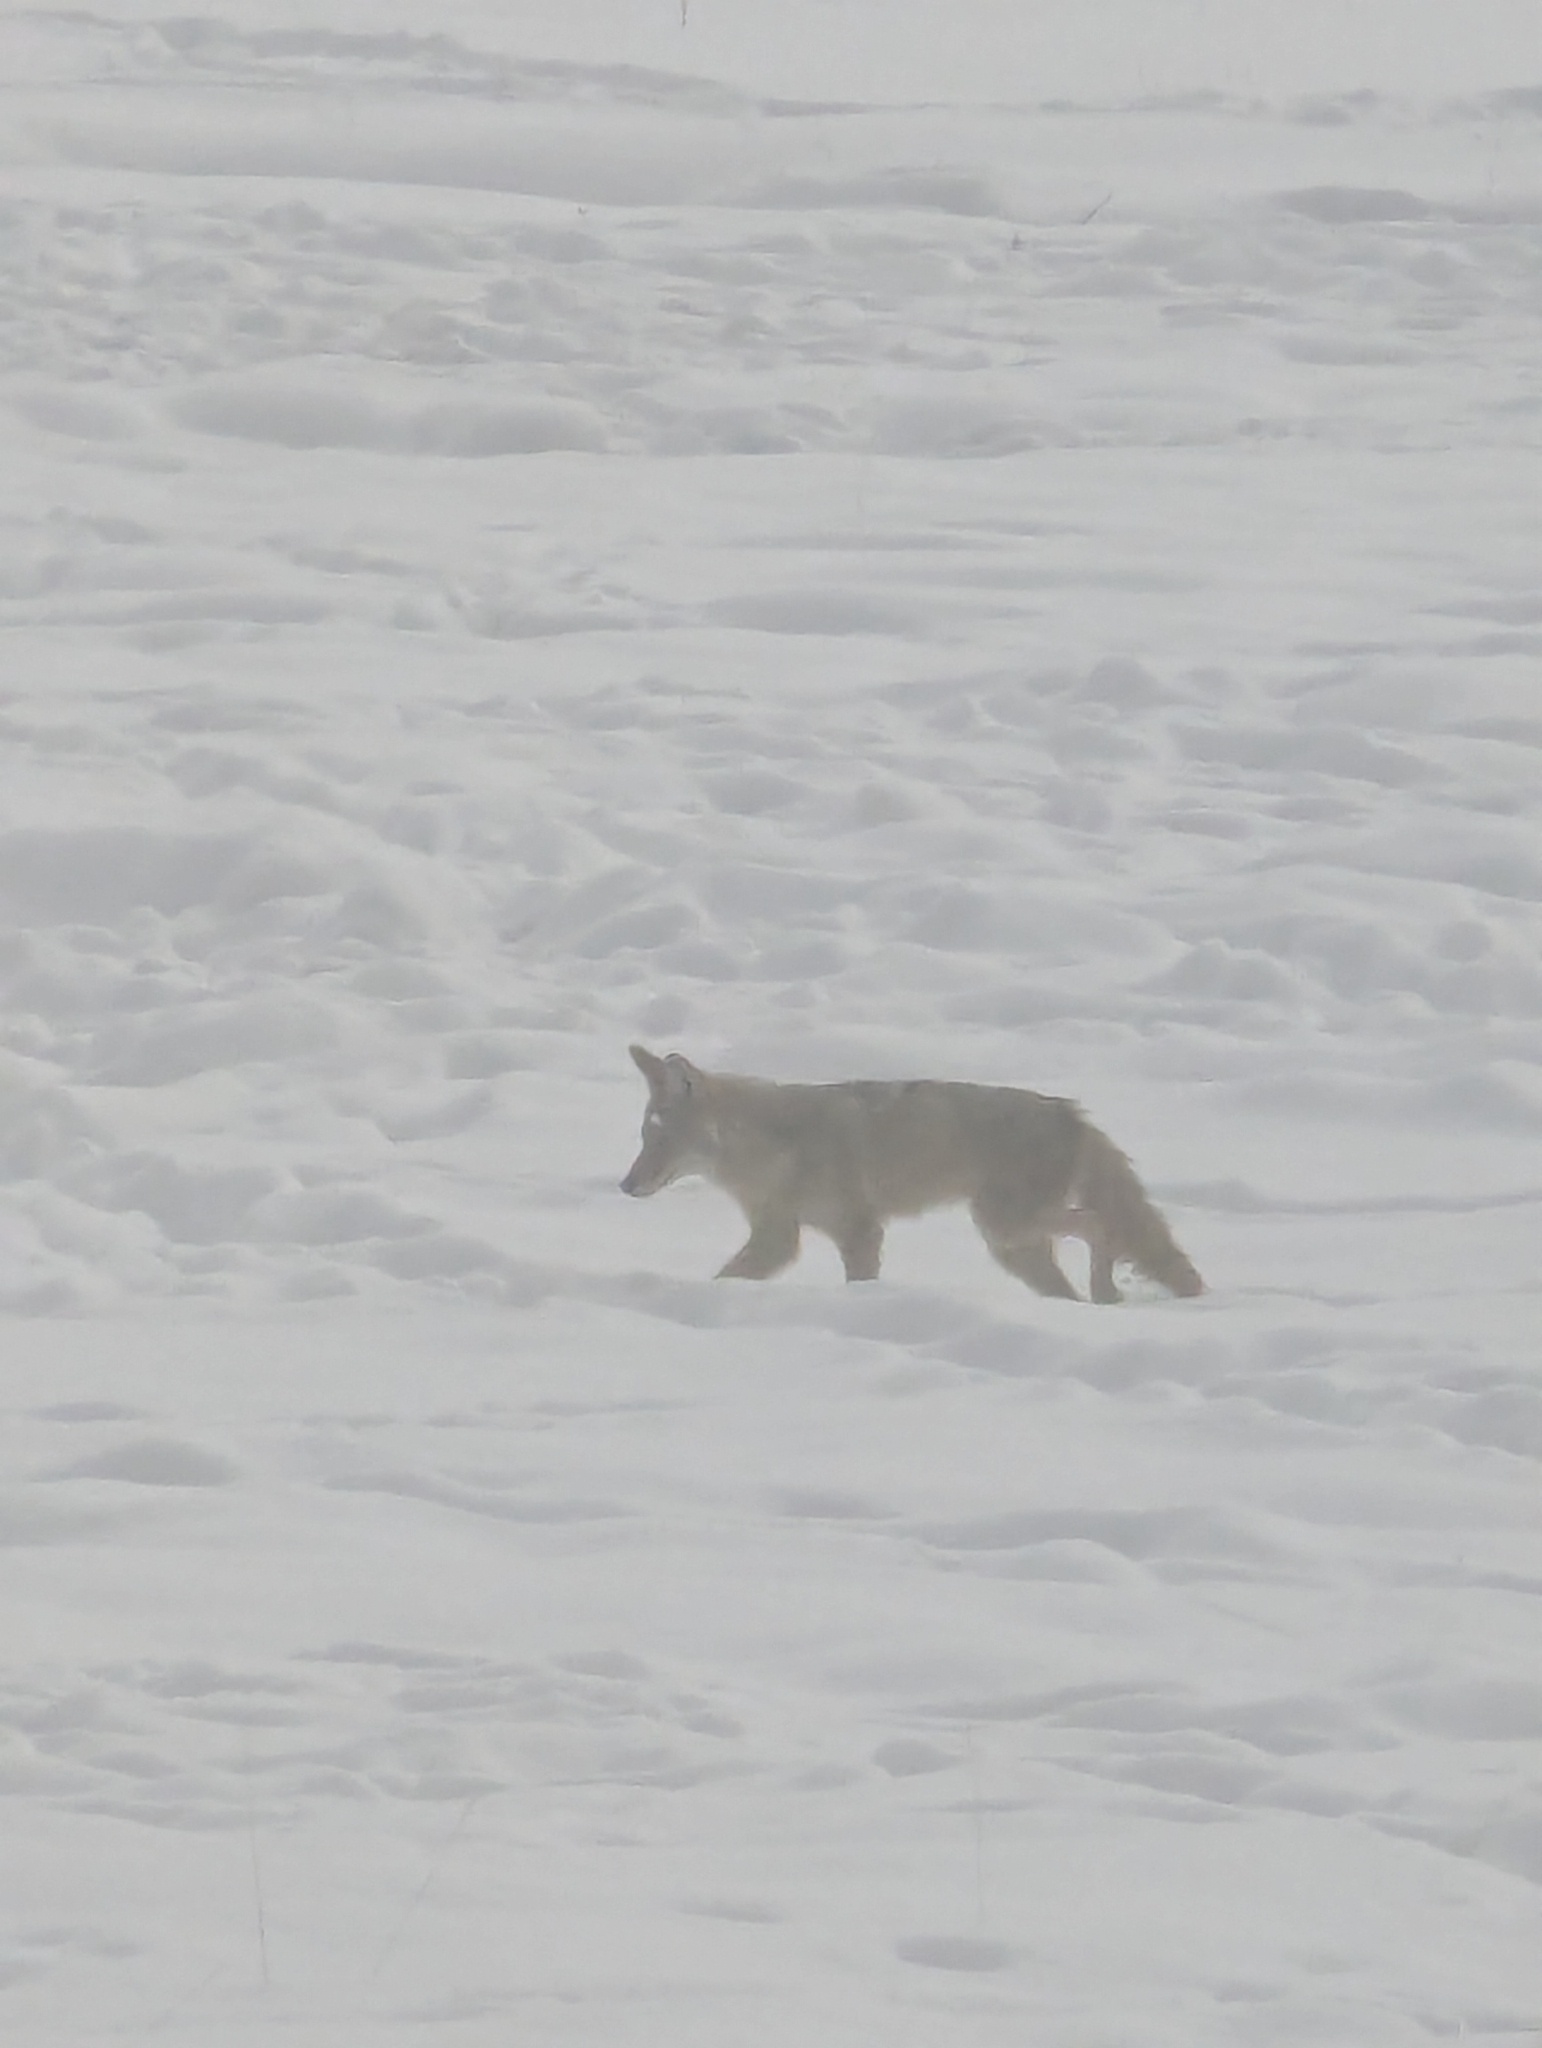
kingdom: Animalia
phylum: Chordata
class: Mammalia
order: Carnivora
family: Canidae
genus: Canis
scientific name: Canis latrans
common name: Coyote
